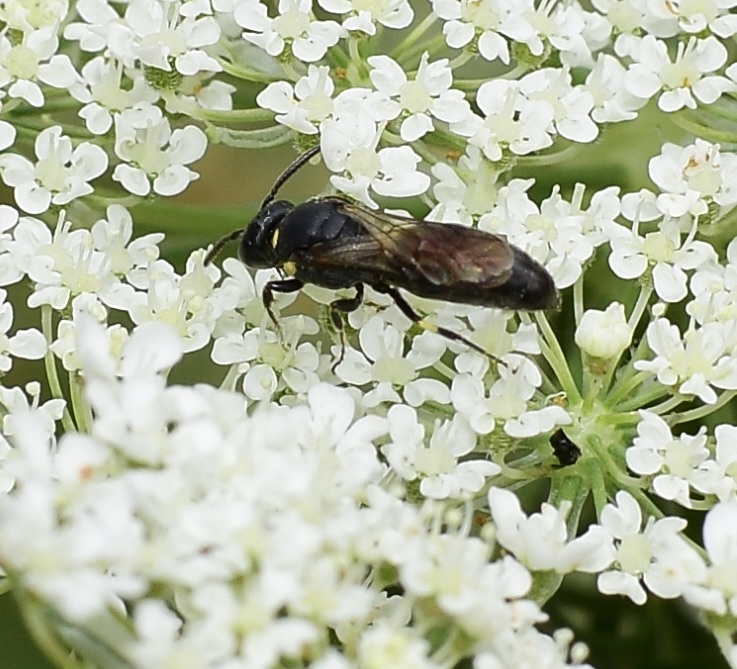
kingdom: Animalia
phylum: Arthropoda
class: Insecta
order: Hymenoptera
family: Colletidae
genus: Hylaeus
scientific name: Hylaeus modestus
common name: Yellow-faced bee
